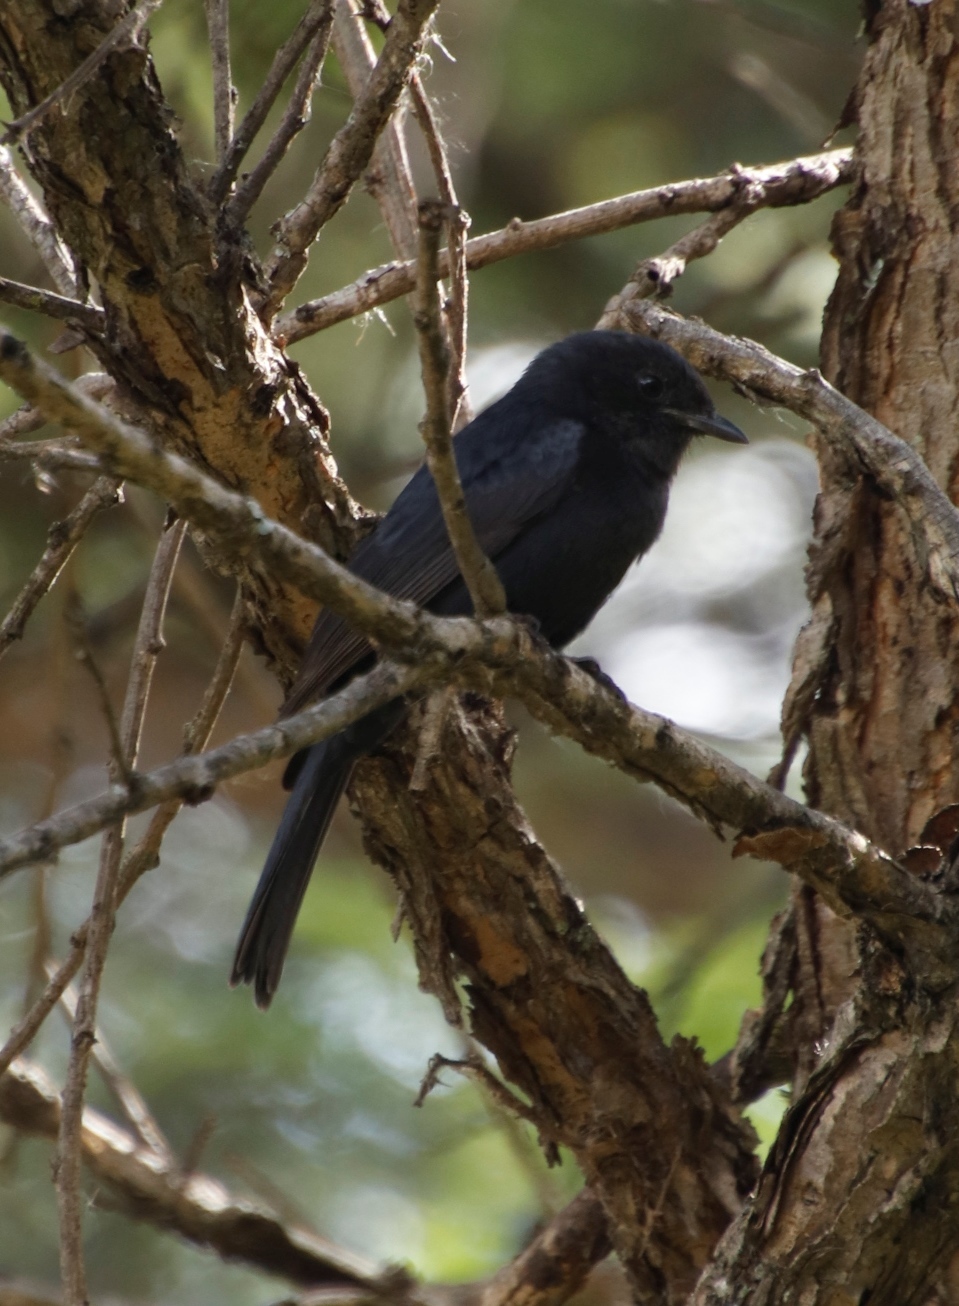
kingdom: Animalia
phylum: Chordata
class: Aves
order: Passeriformes
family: Muscicapidae
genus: Melaenornis
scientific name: Melaenornis pammelaina
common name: Southern black flycatcher
